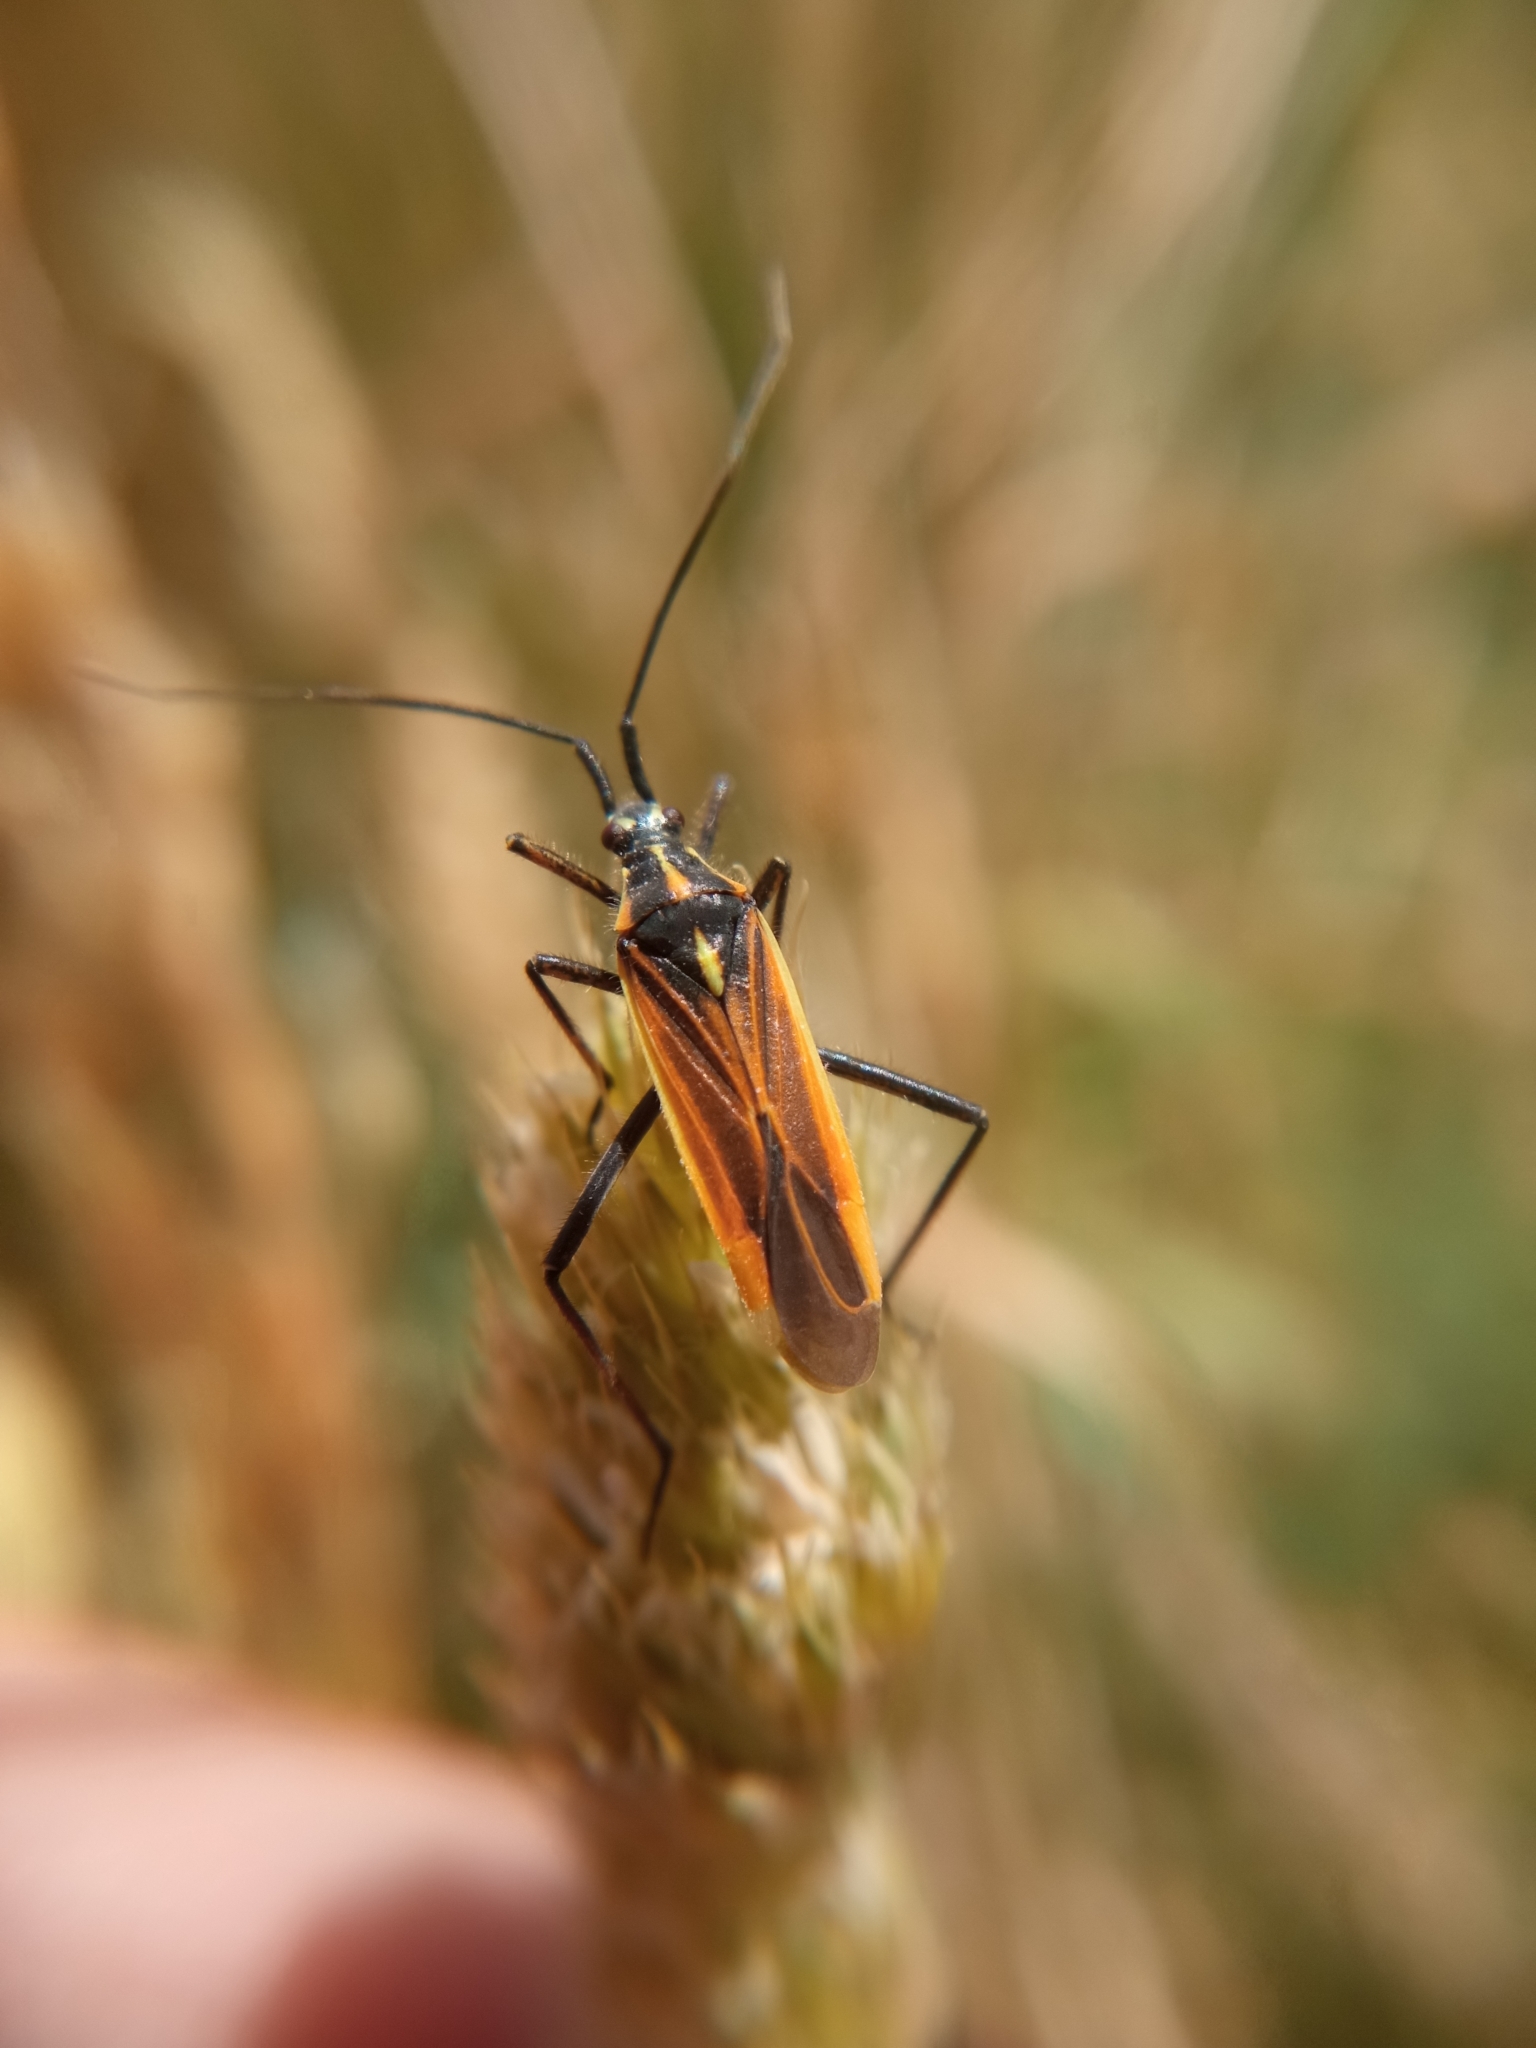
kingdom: Animalia
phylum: Arthropoda
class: Insecta
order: Hemiptera
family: Miridae
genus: Leptopterna
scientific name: Leptopterna dolabrata
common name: Meadow plant bug
